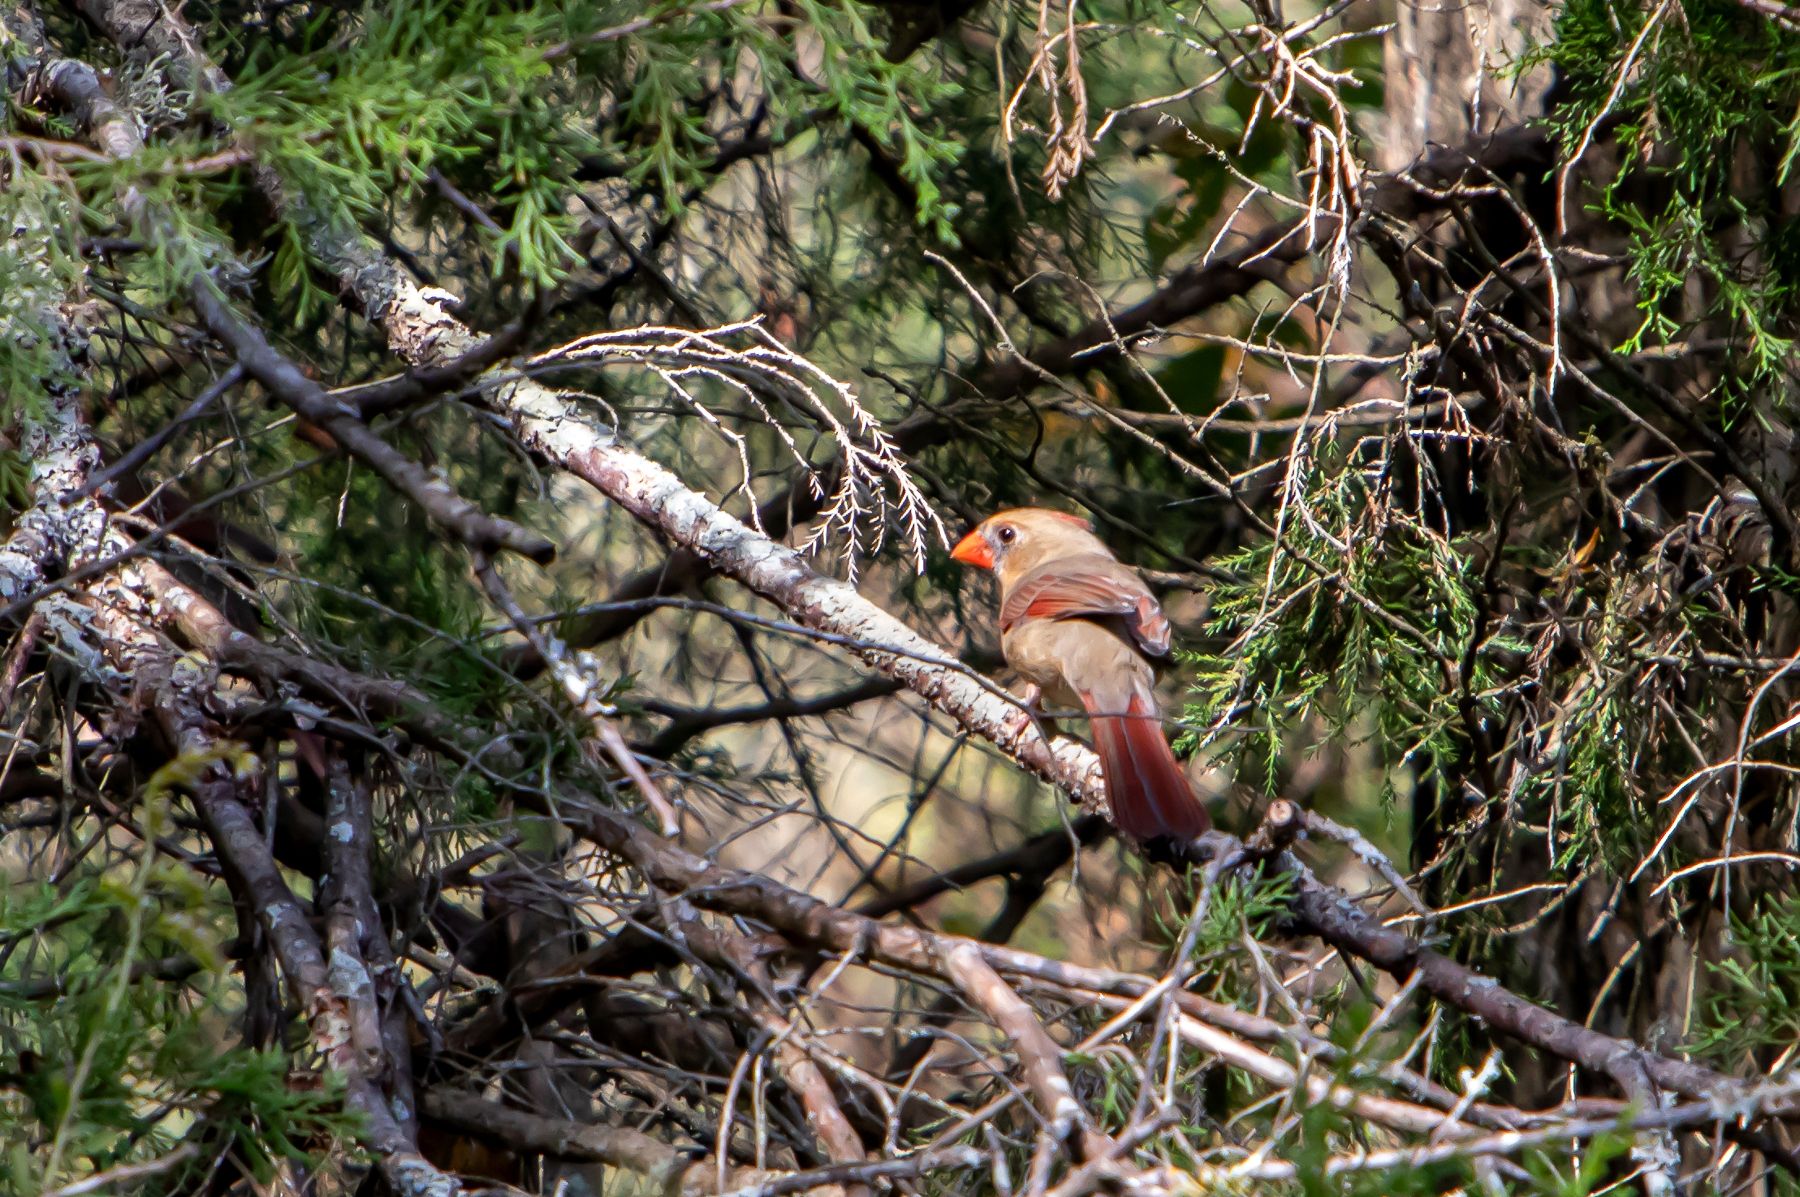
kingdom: Animalia
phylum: Chordata
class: Aves
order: Passeriformes
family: Cardinalidae
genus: Cardinalis
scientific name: Cardinalis cardinalis
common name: Northern cardinal
